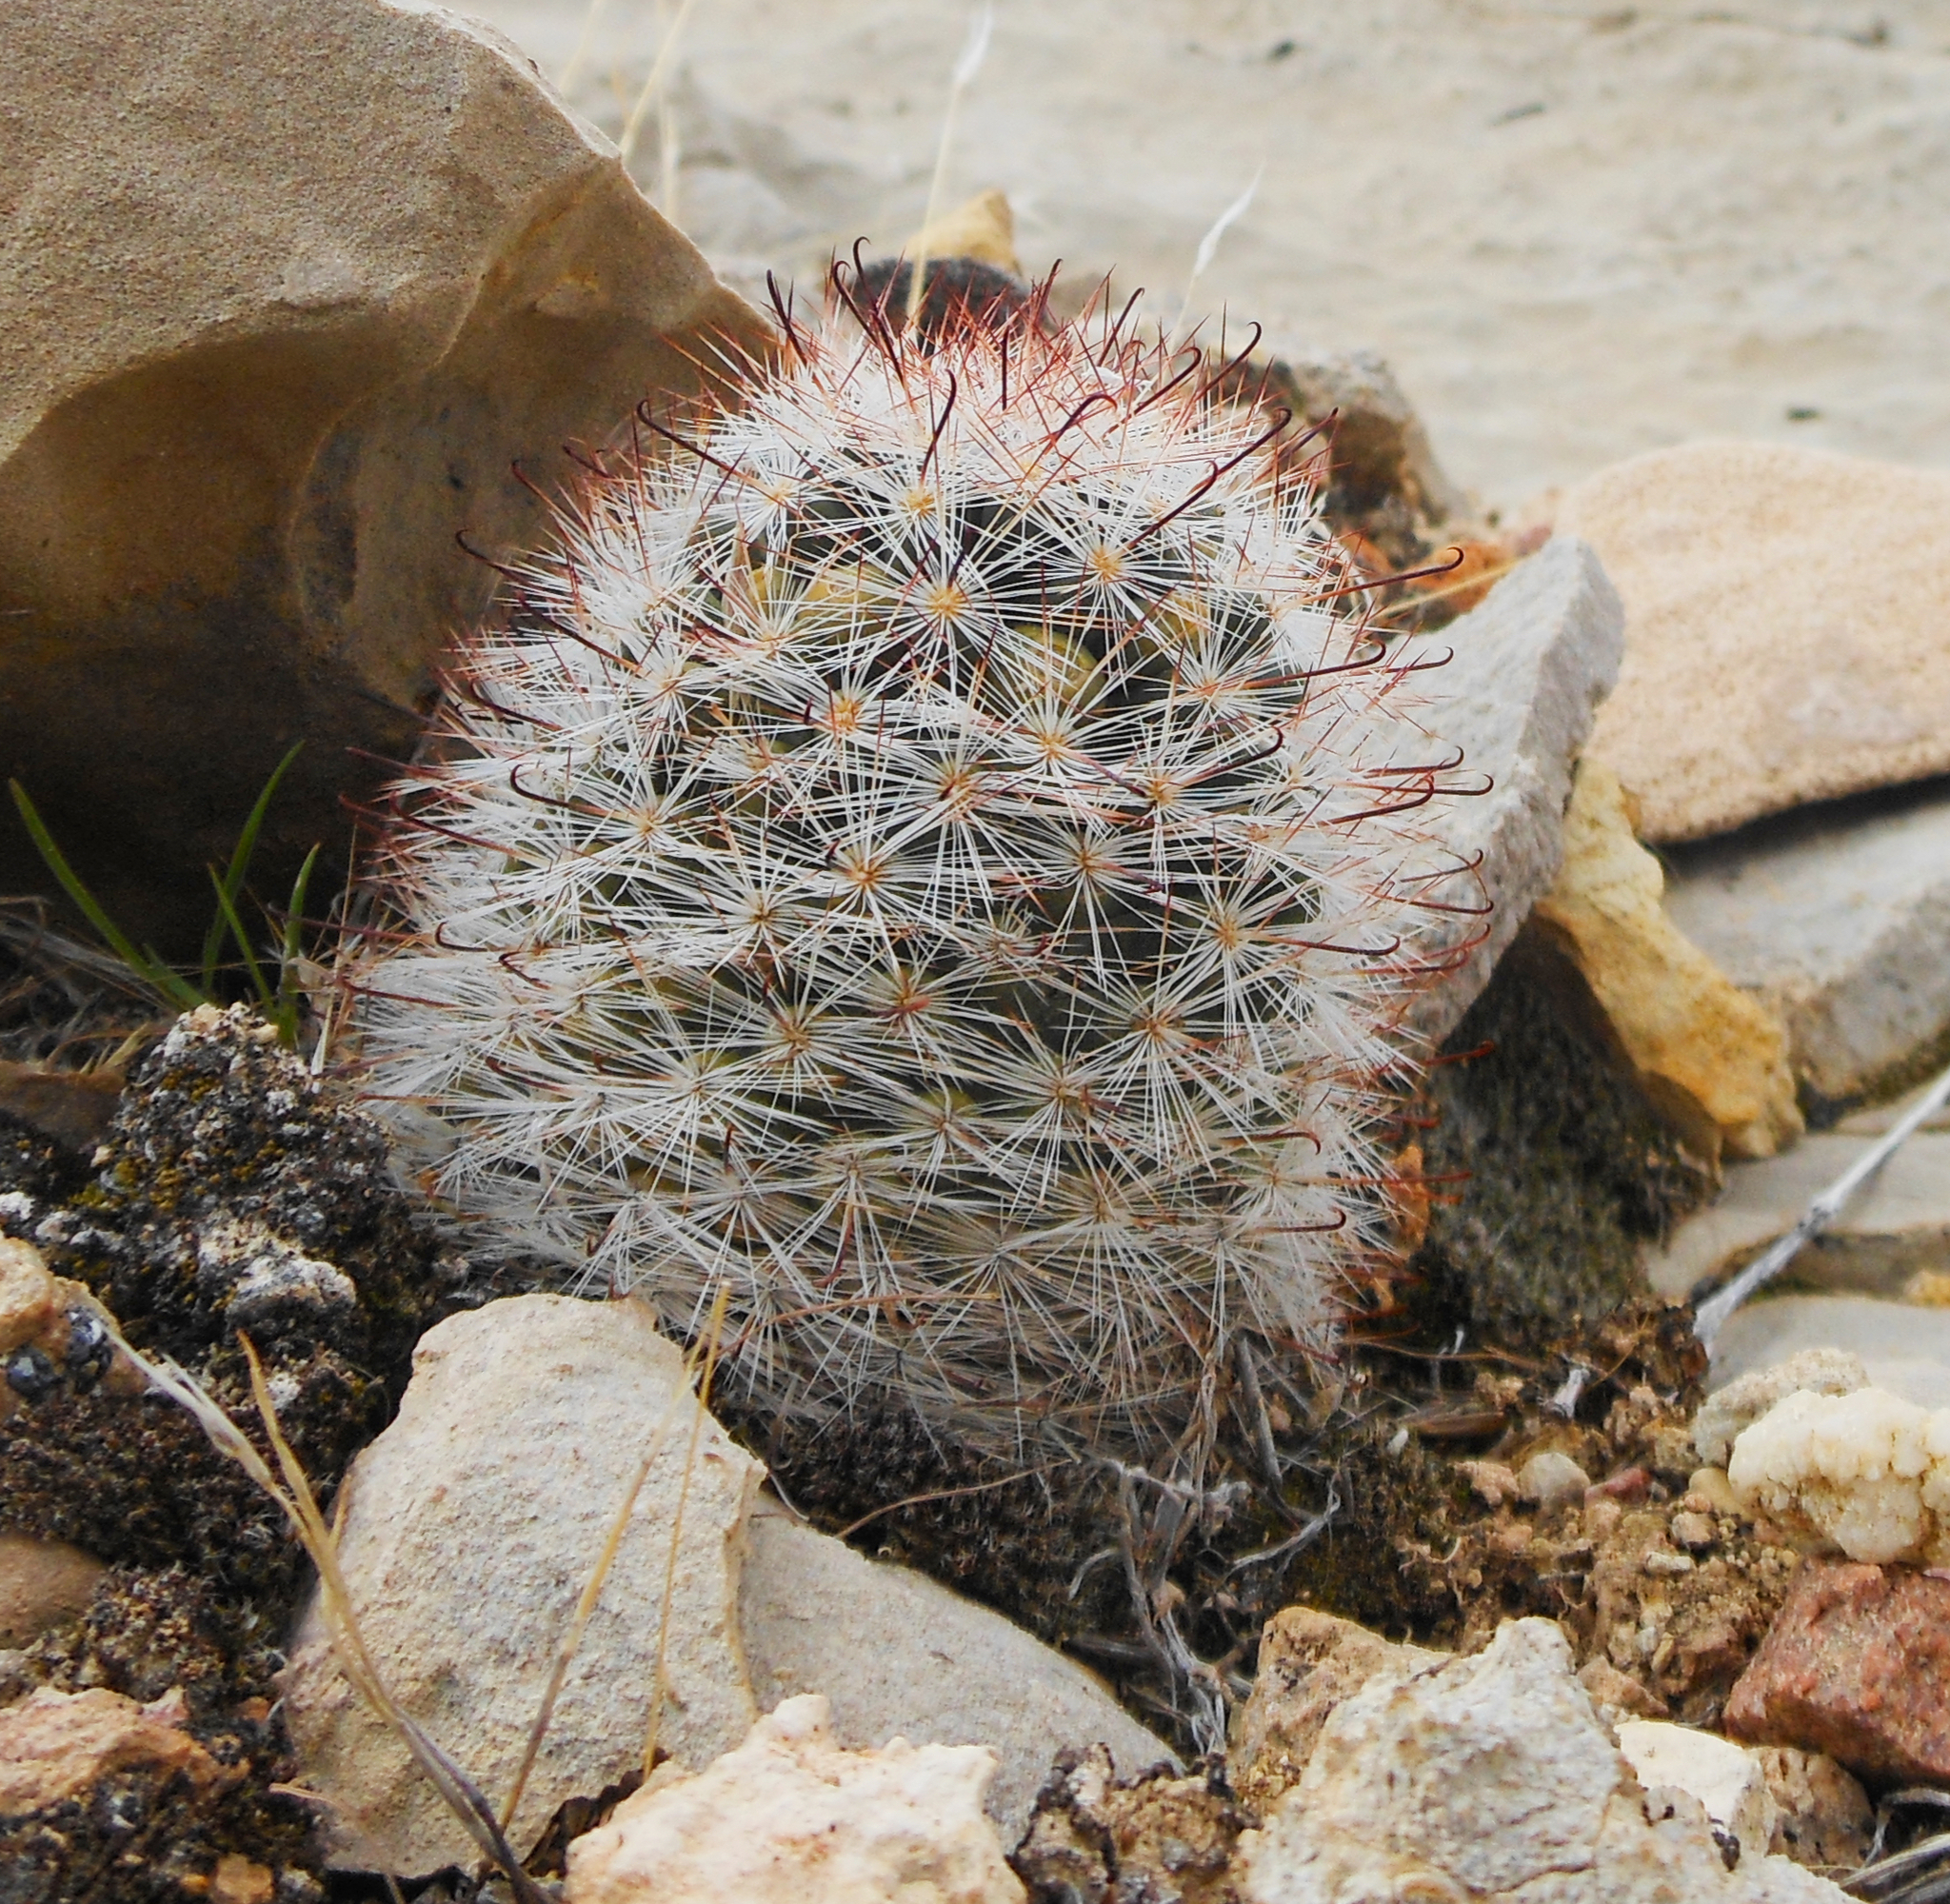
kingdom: Plantae
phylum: Tracheophyta
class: Magnoliopsida
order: Caryophyllales
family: Cactaceae
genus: Cochemiea
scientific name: Cochemiea tetrancistra
